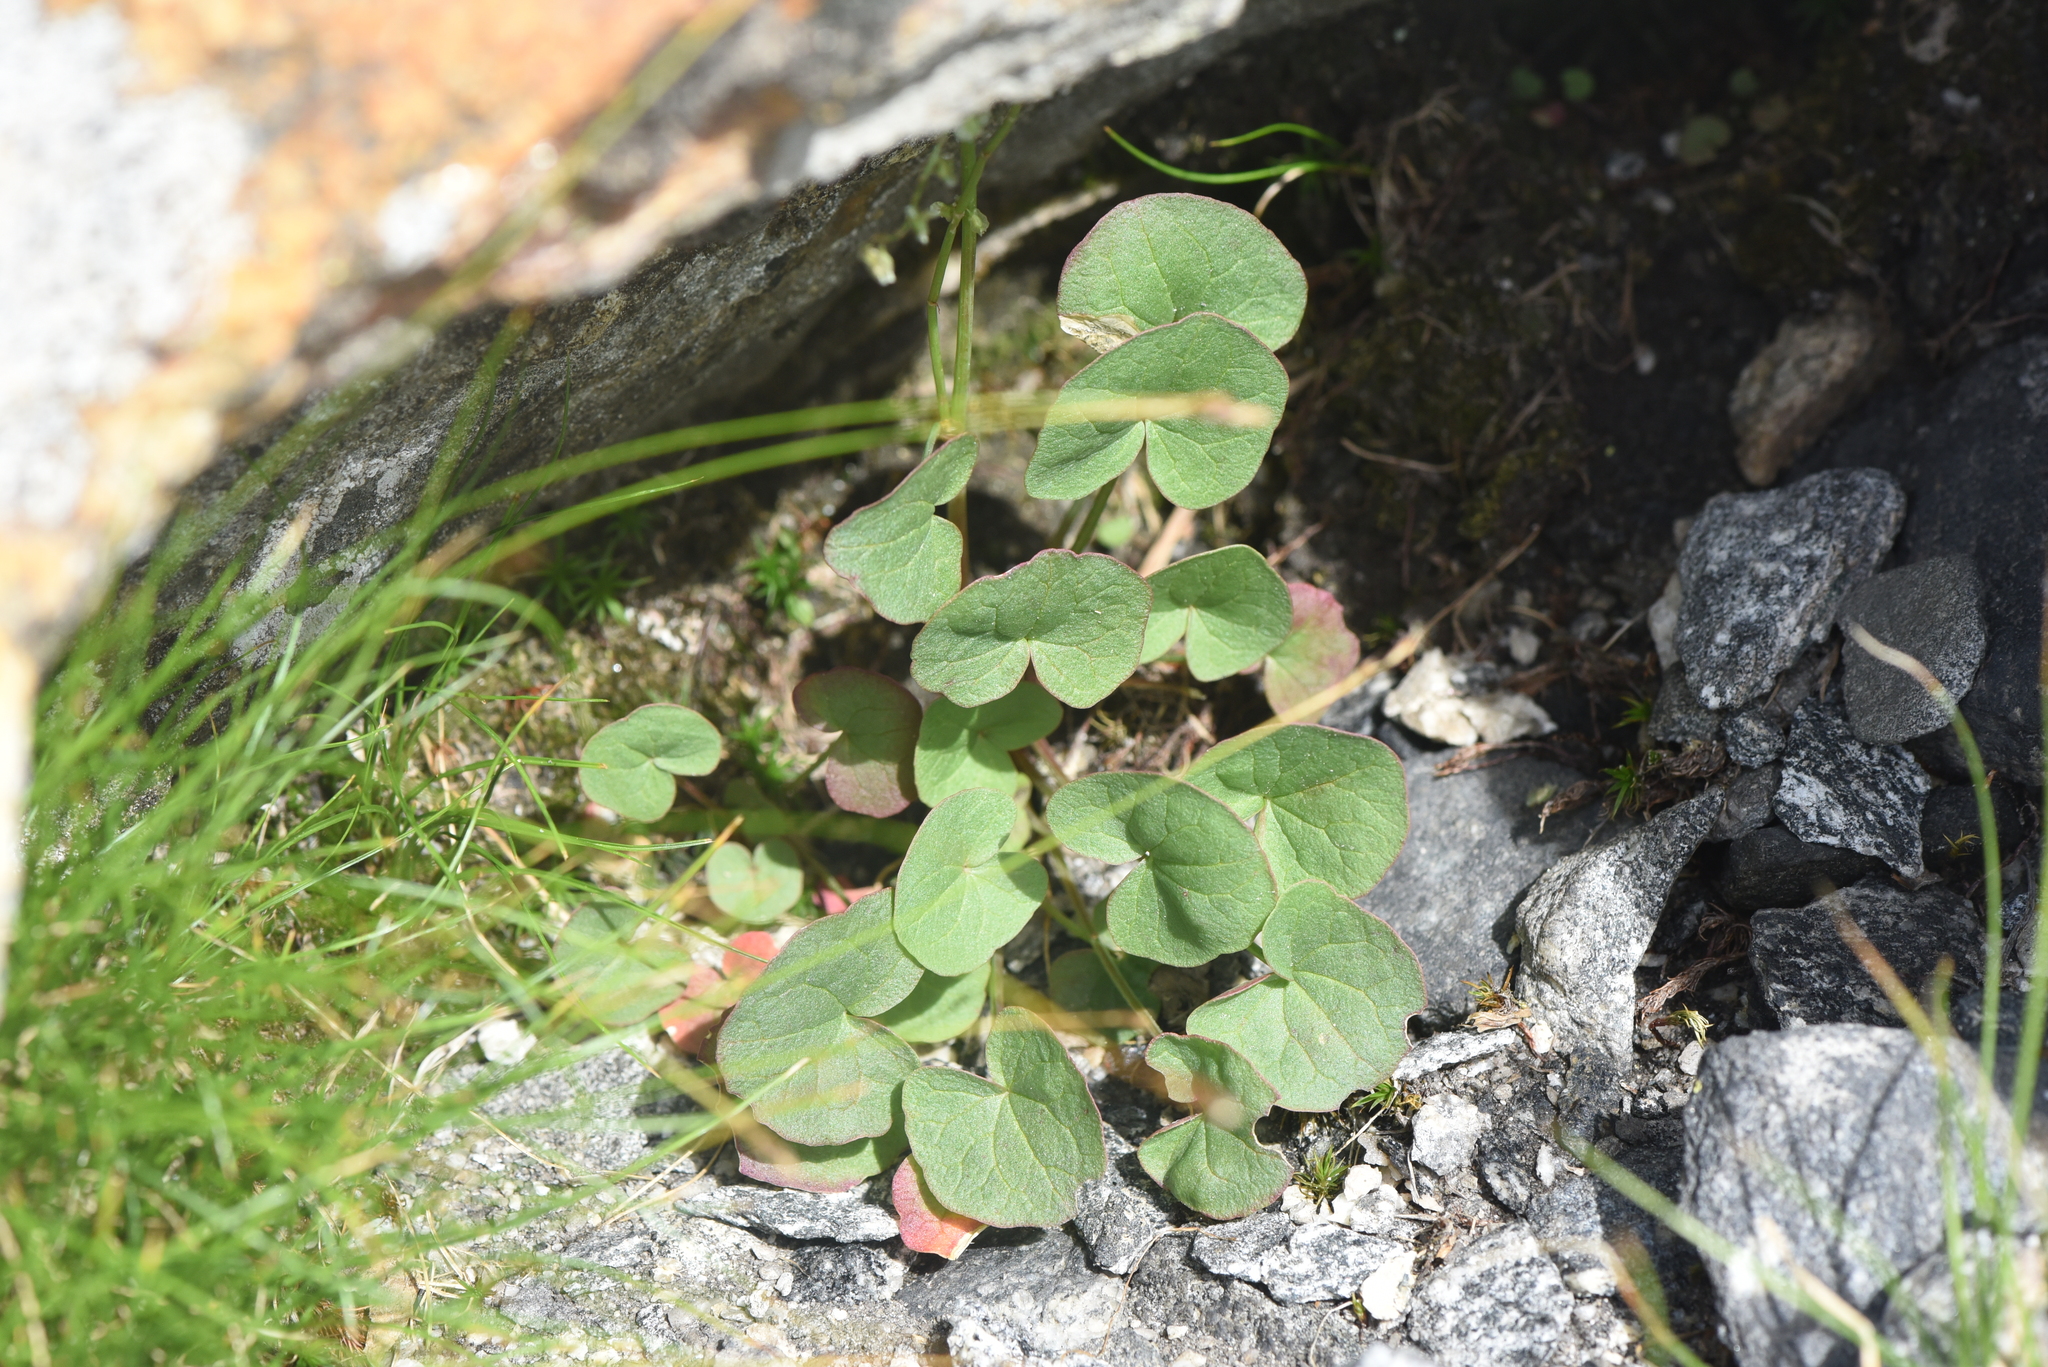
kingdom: Plantae
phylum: Tracheophyta
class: Magnoliopsida
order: Caryophyllales
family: Polygonaceae
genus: Oxyria
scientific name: Oxyria digyna
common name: Alpine mountain-sorrel
